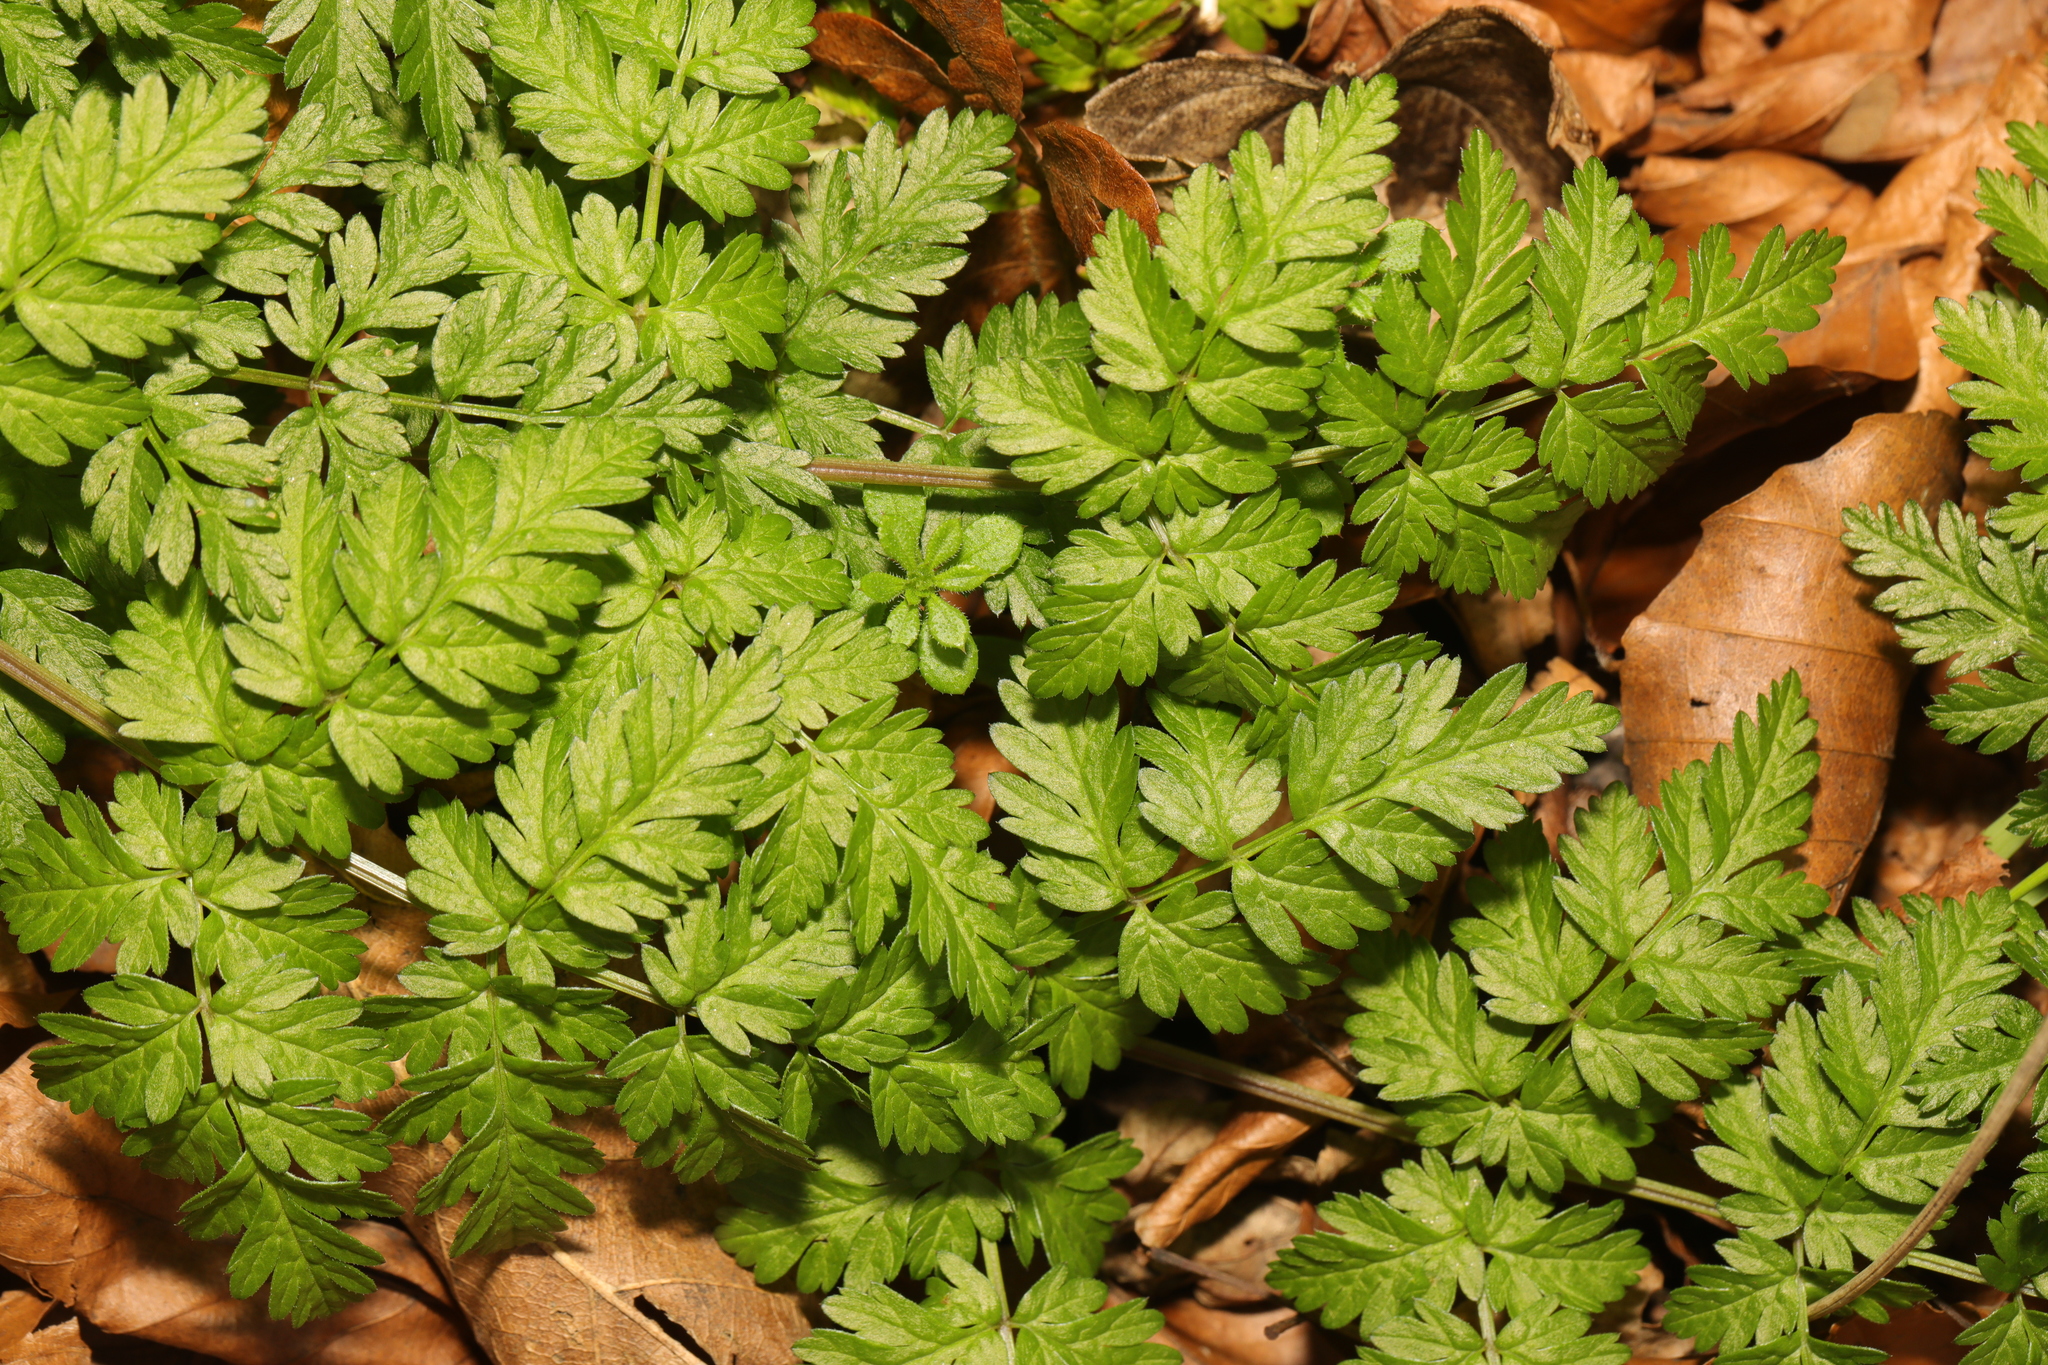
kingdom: Plantae
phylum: Tracheophyta
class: Magnoliopsida
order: Apiales
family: Apiaceae
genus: Anthriscus
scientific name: Anthriscus sylvestris
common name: Cow parsley
